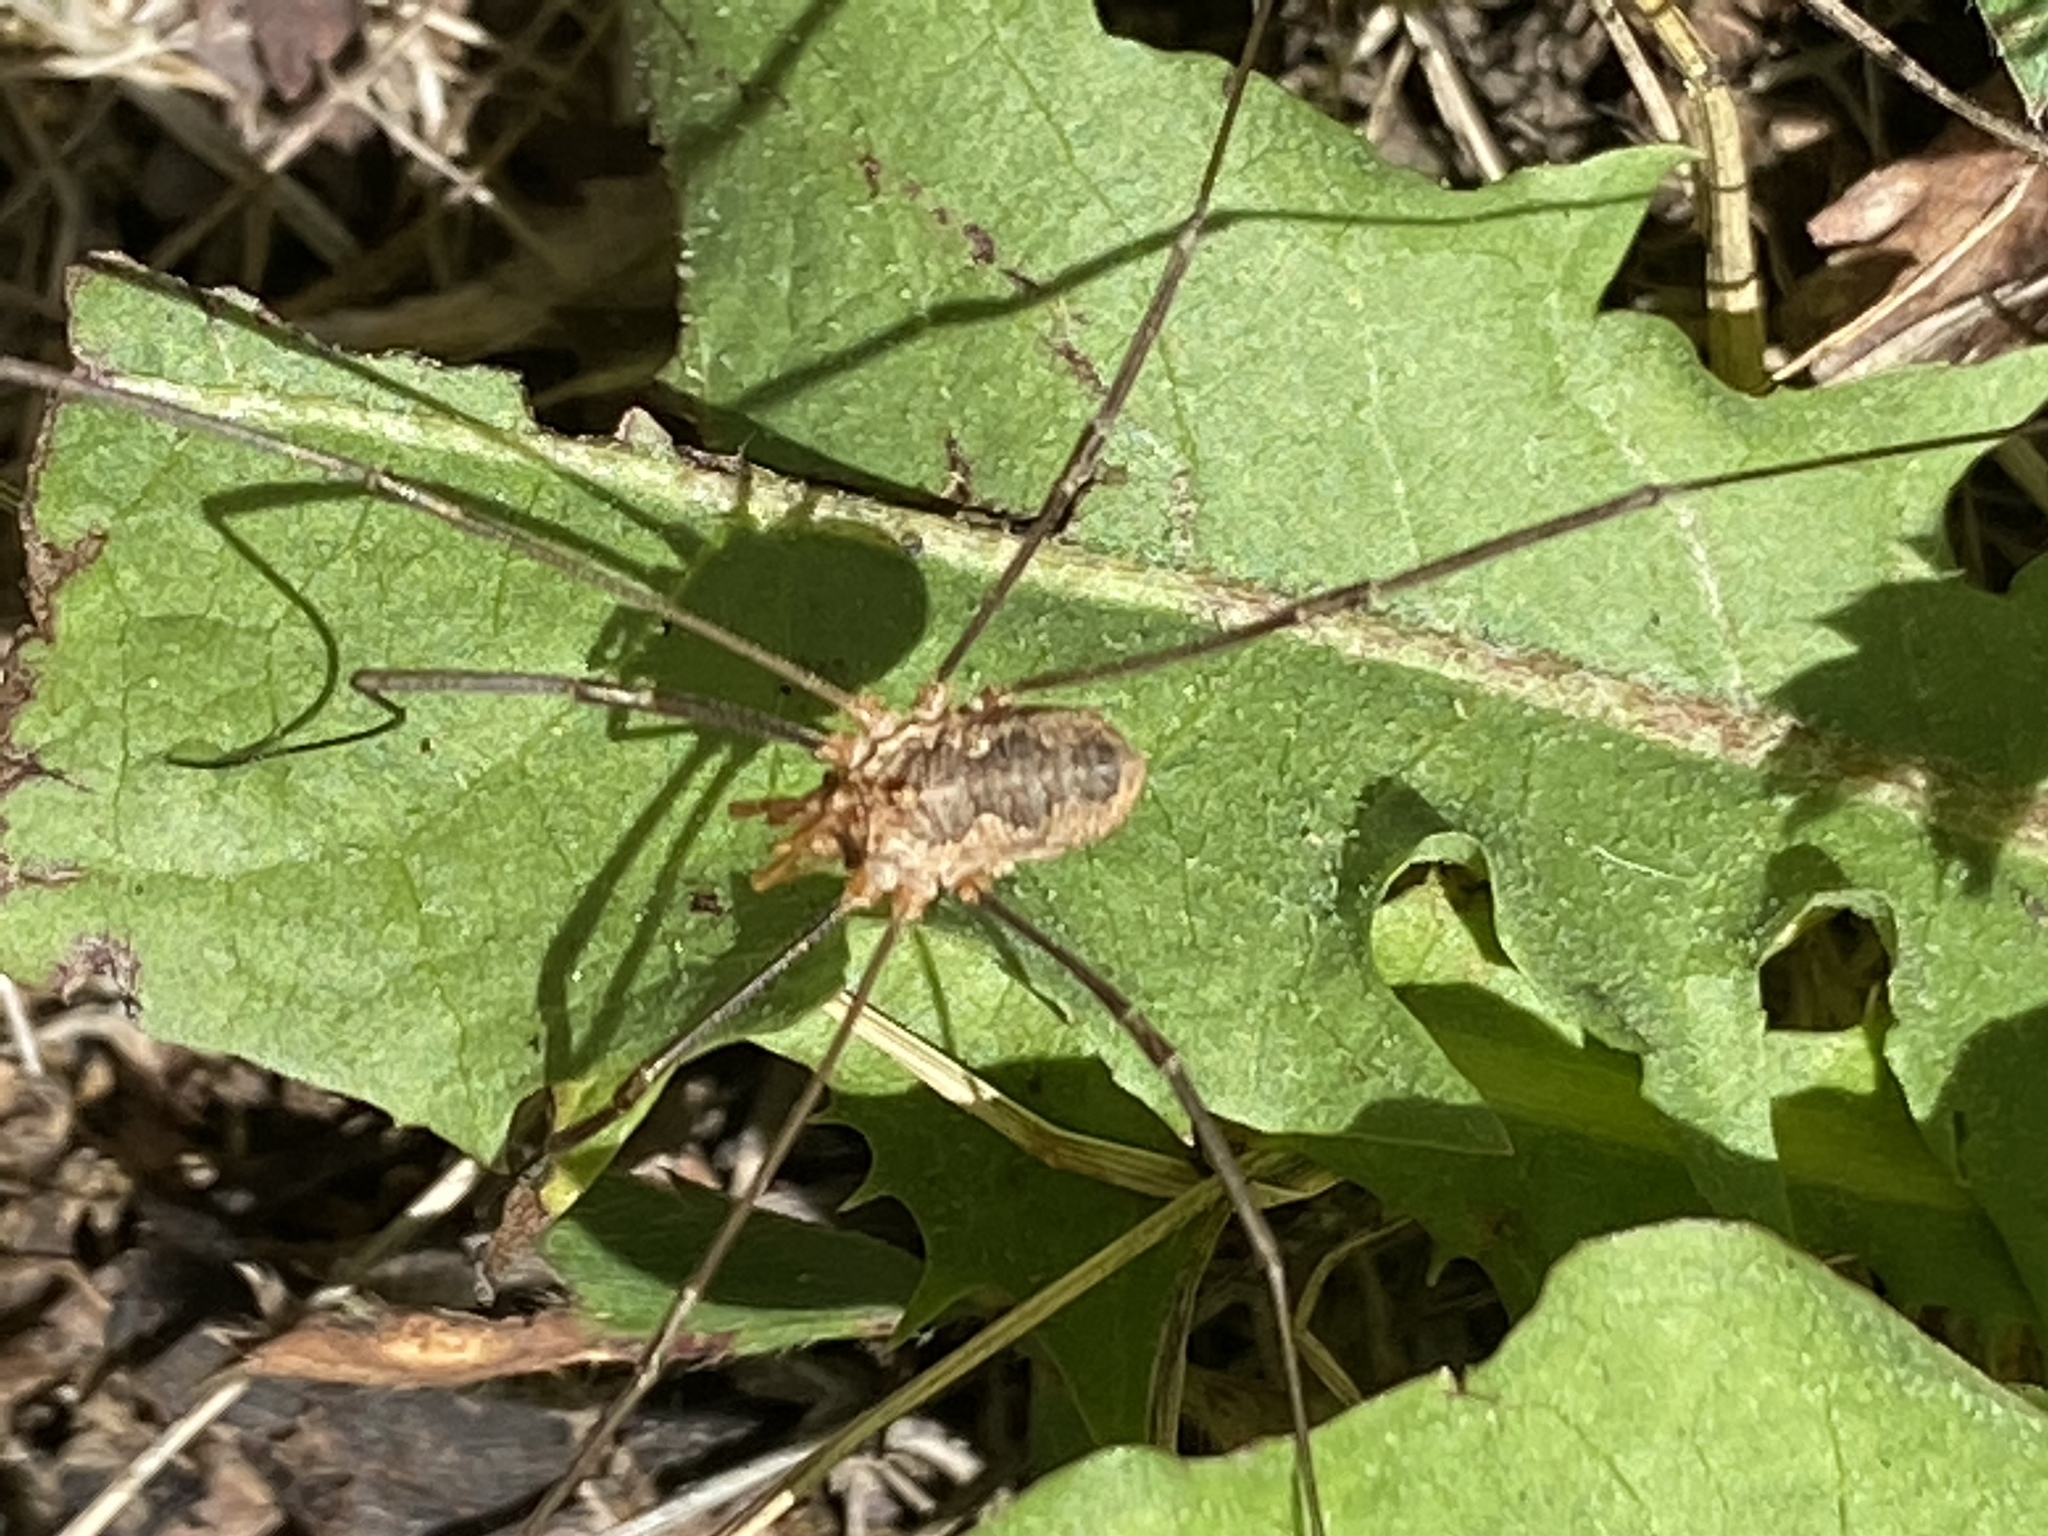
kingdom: Animalia
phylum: Arthropoda
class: Arachnida
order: Opiliones
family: Phalangiidae
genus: Phalangium
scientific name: Phalangium opilio
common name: Daddy longleg
